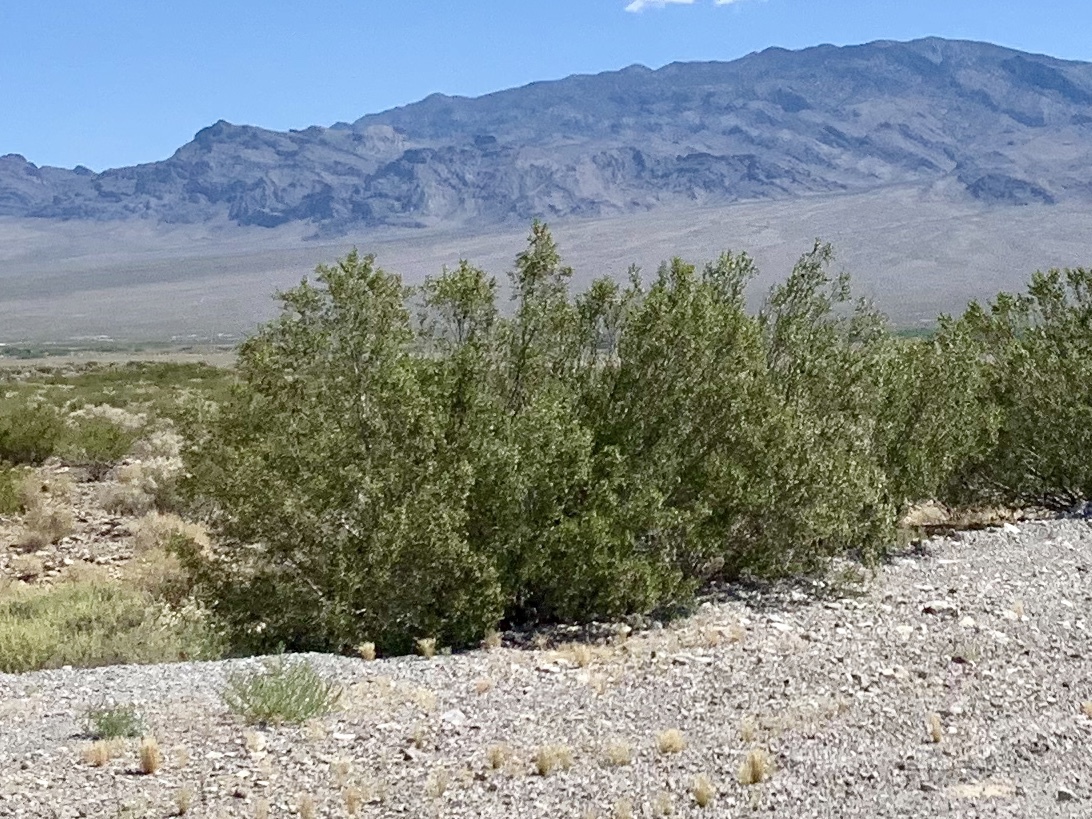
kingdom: Plantae
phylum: Tracheophyta
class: Magnoliopsida
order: Zygophyllales
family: Zygophyllaceae
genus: Larrea
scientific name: Larrea tridentata
